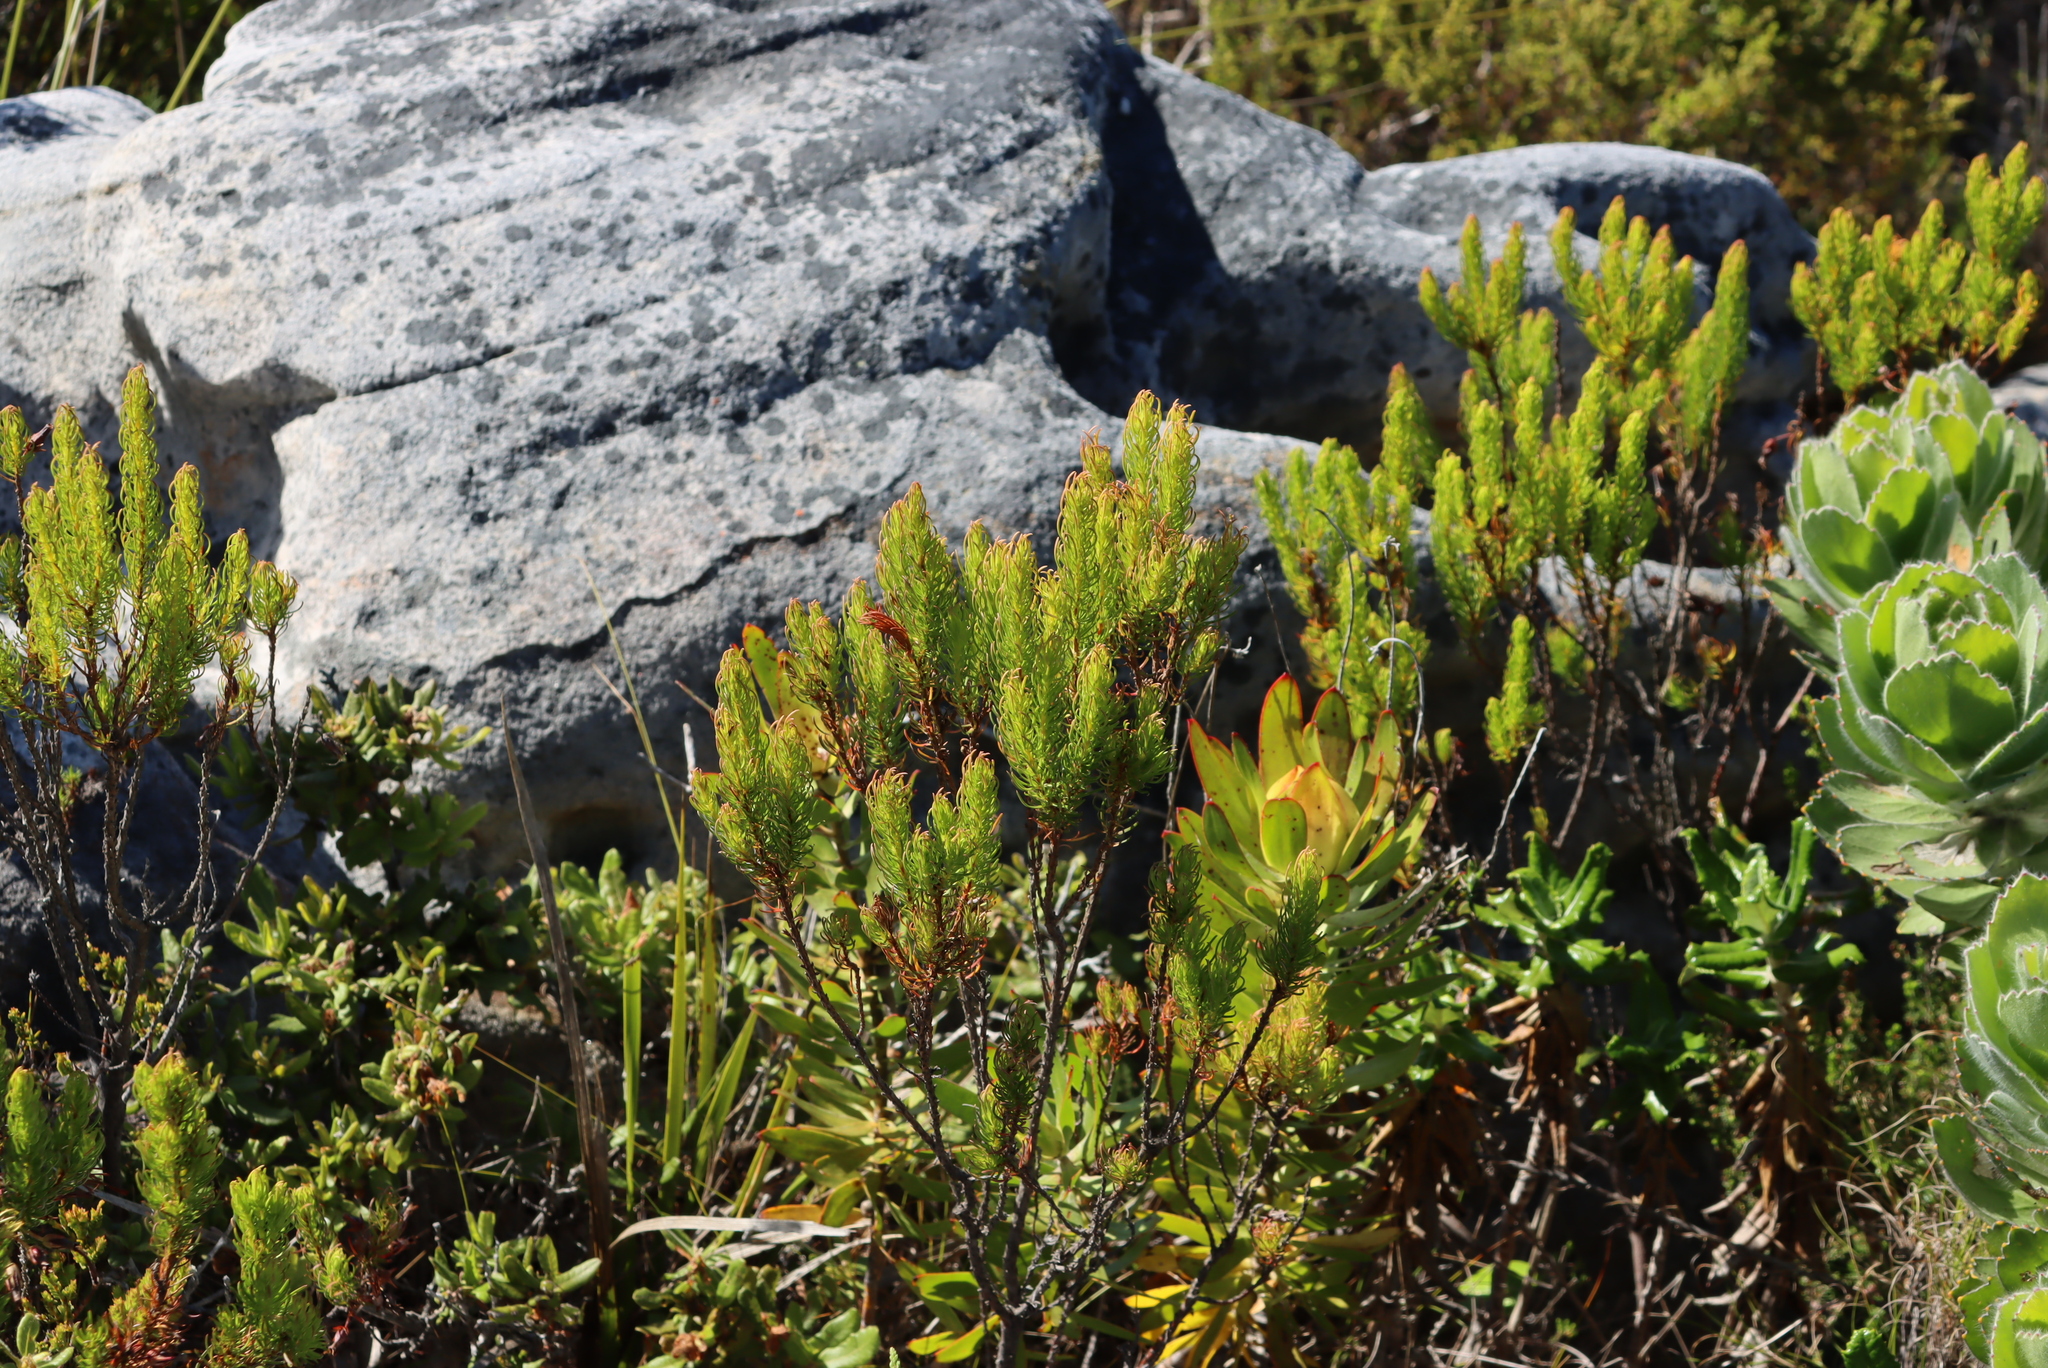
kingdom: Plantae
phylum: Tracheophyta
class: Magnoliopsida
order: Ericales
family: Ericaceae
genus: Erica
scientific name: Erica plukenetii
